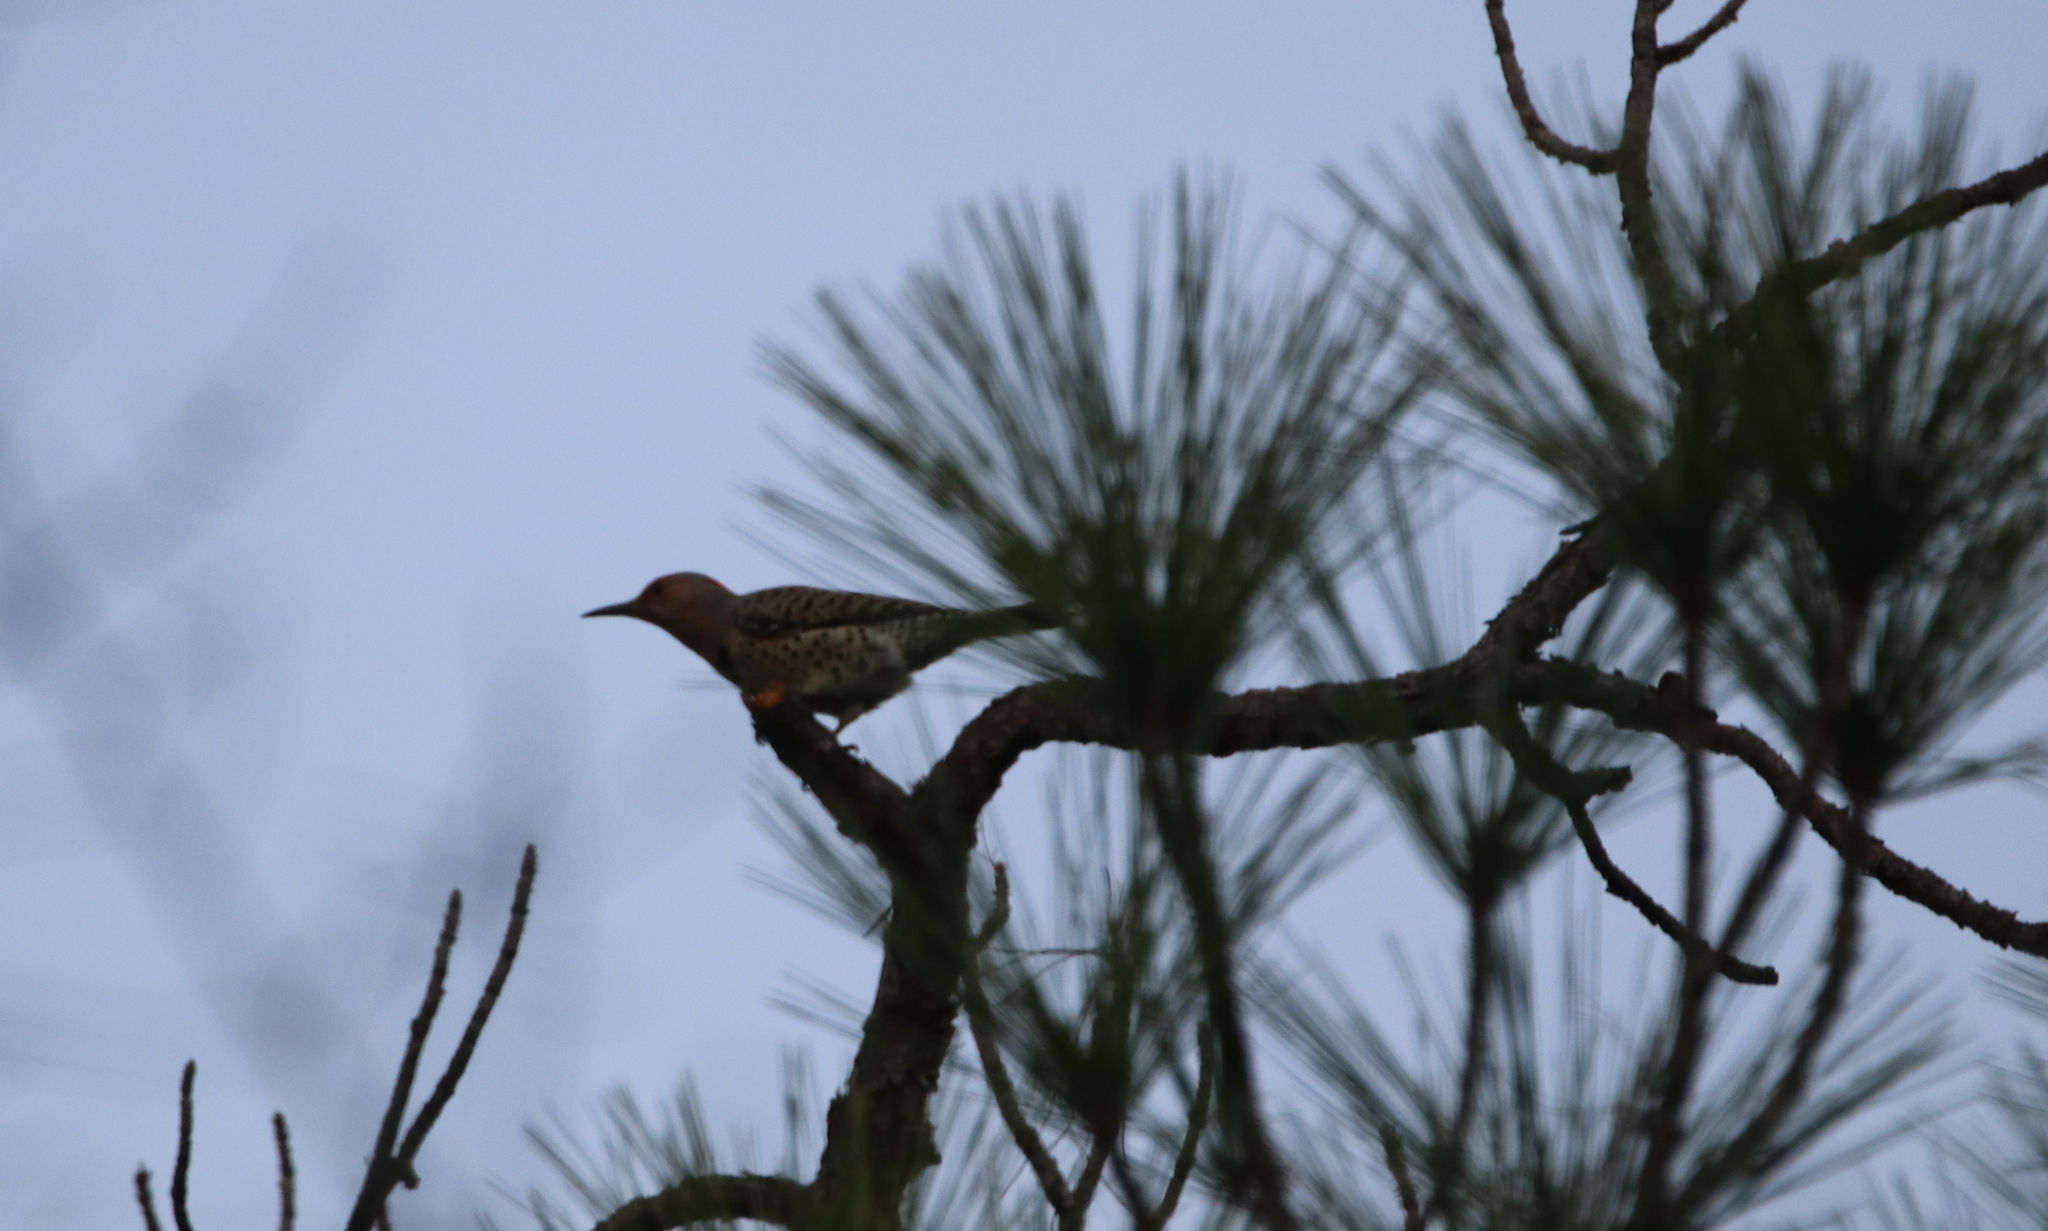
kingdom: Animalia
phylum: Chordata
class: Aves
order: Piciformes
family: Picidae
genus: Colaptes
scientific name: Colaptes auratus
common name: Northern flicker
